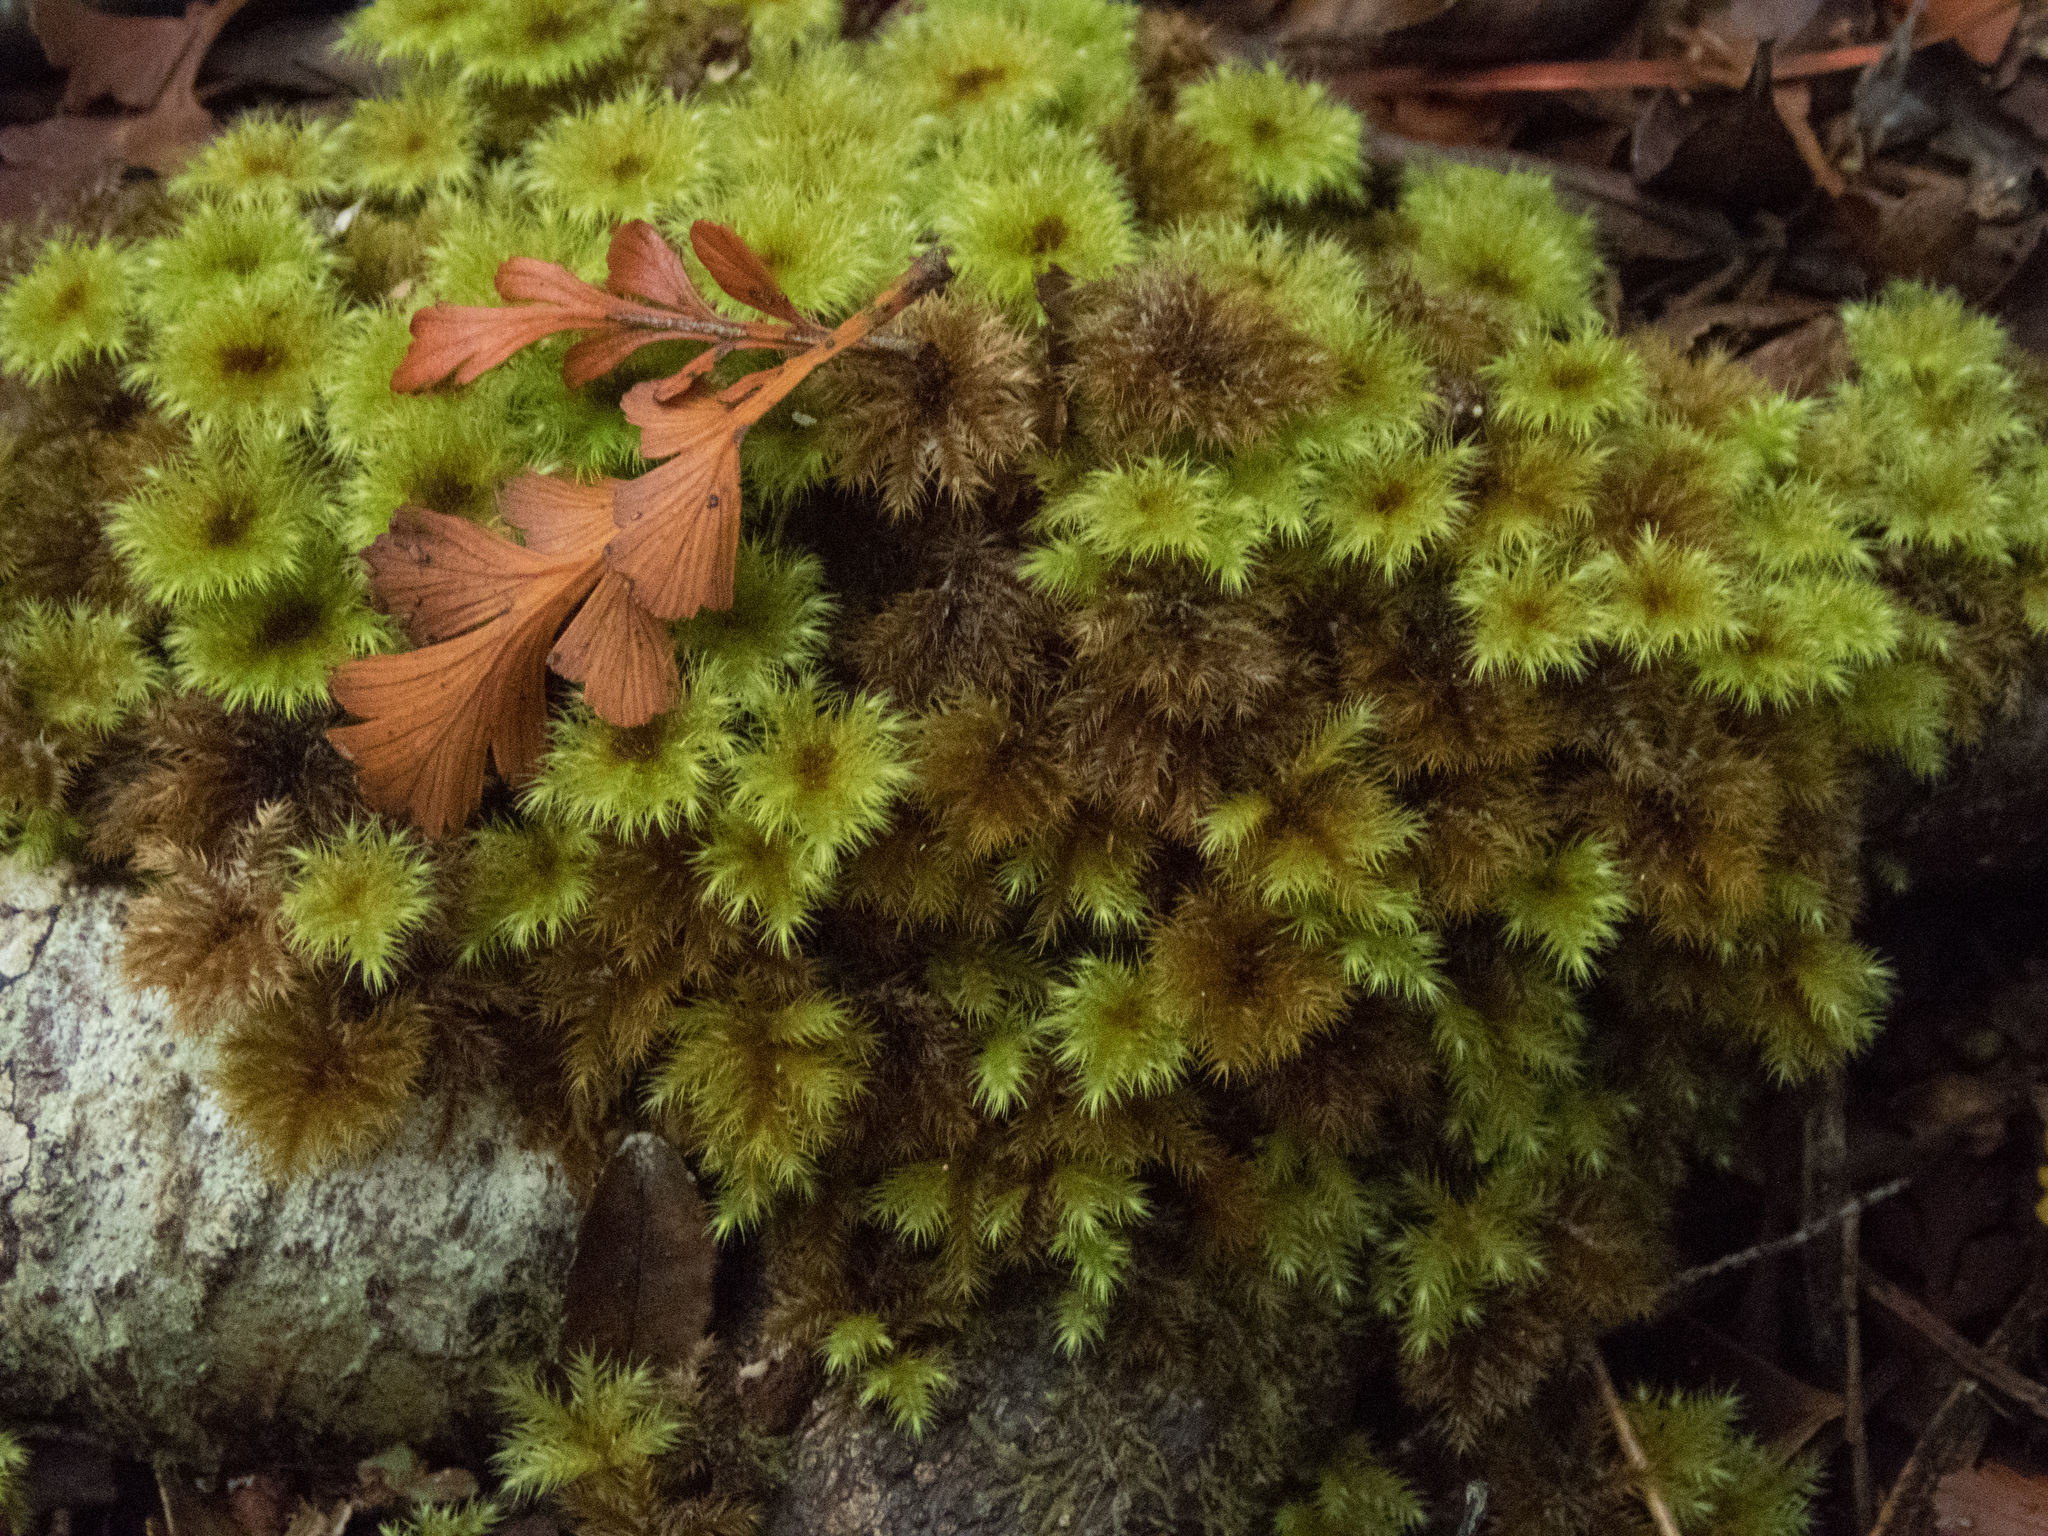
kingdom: Plantae
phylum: Bryophyta
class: Bryopsida
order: Hypnodendrales
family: Spiridentaceae
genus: Mniodendron
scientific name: Mniodendron colensoi
